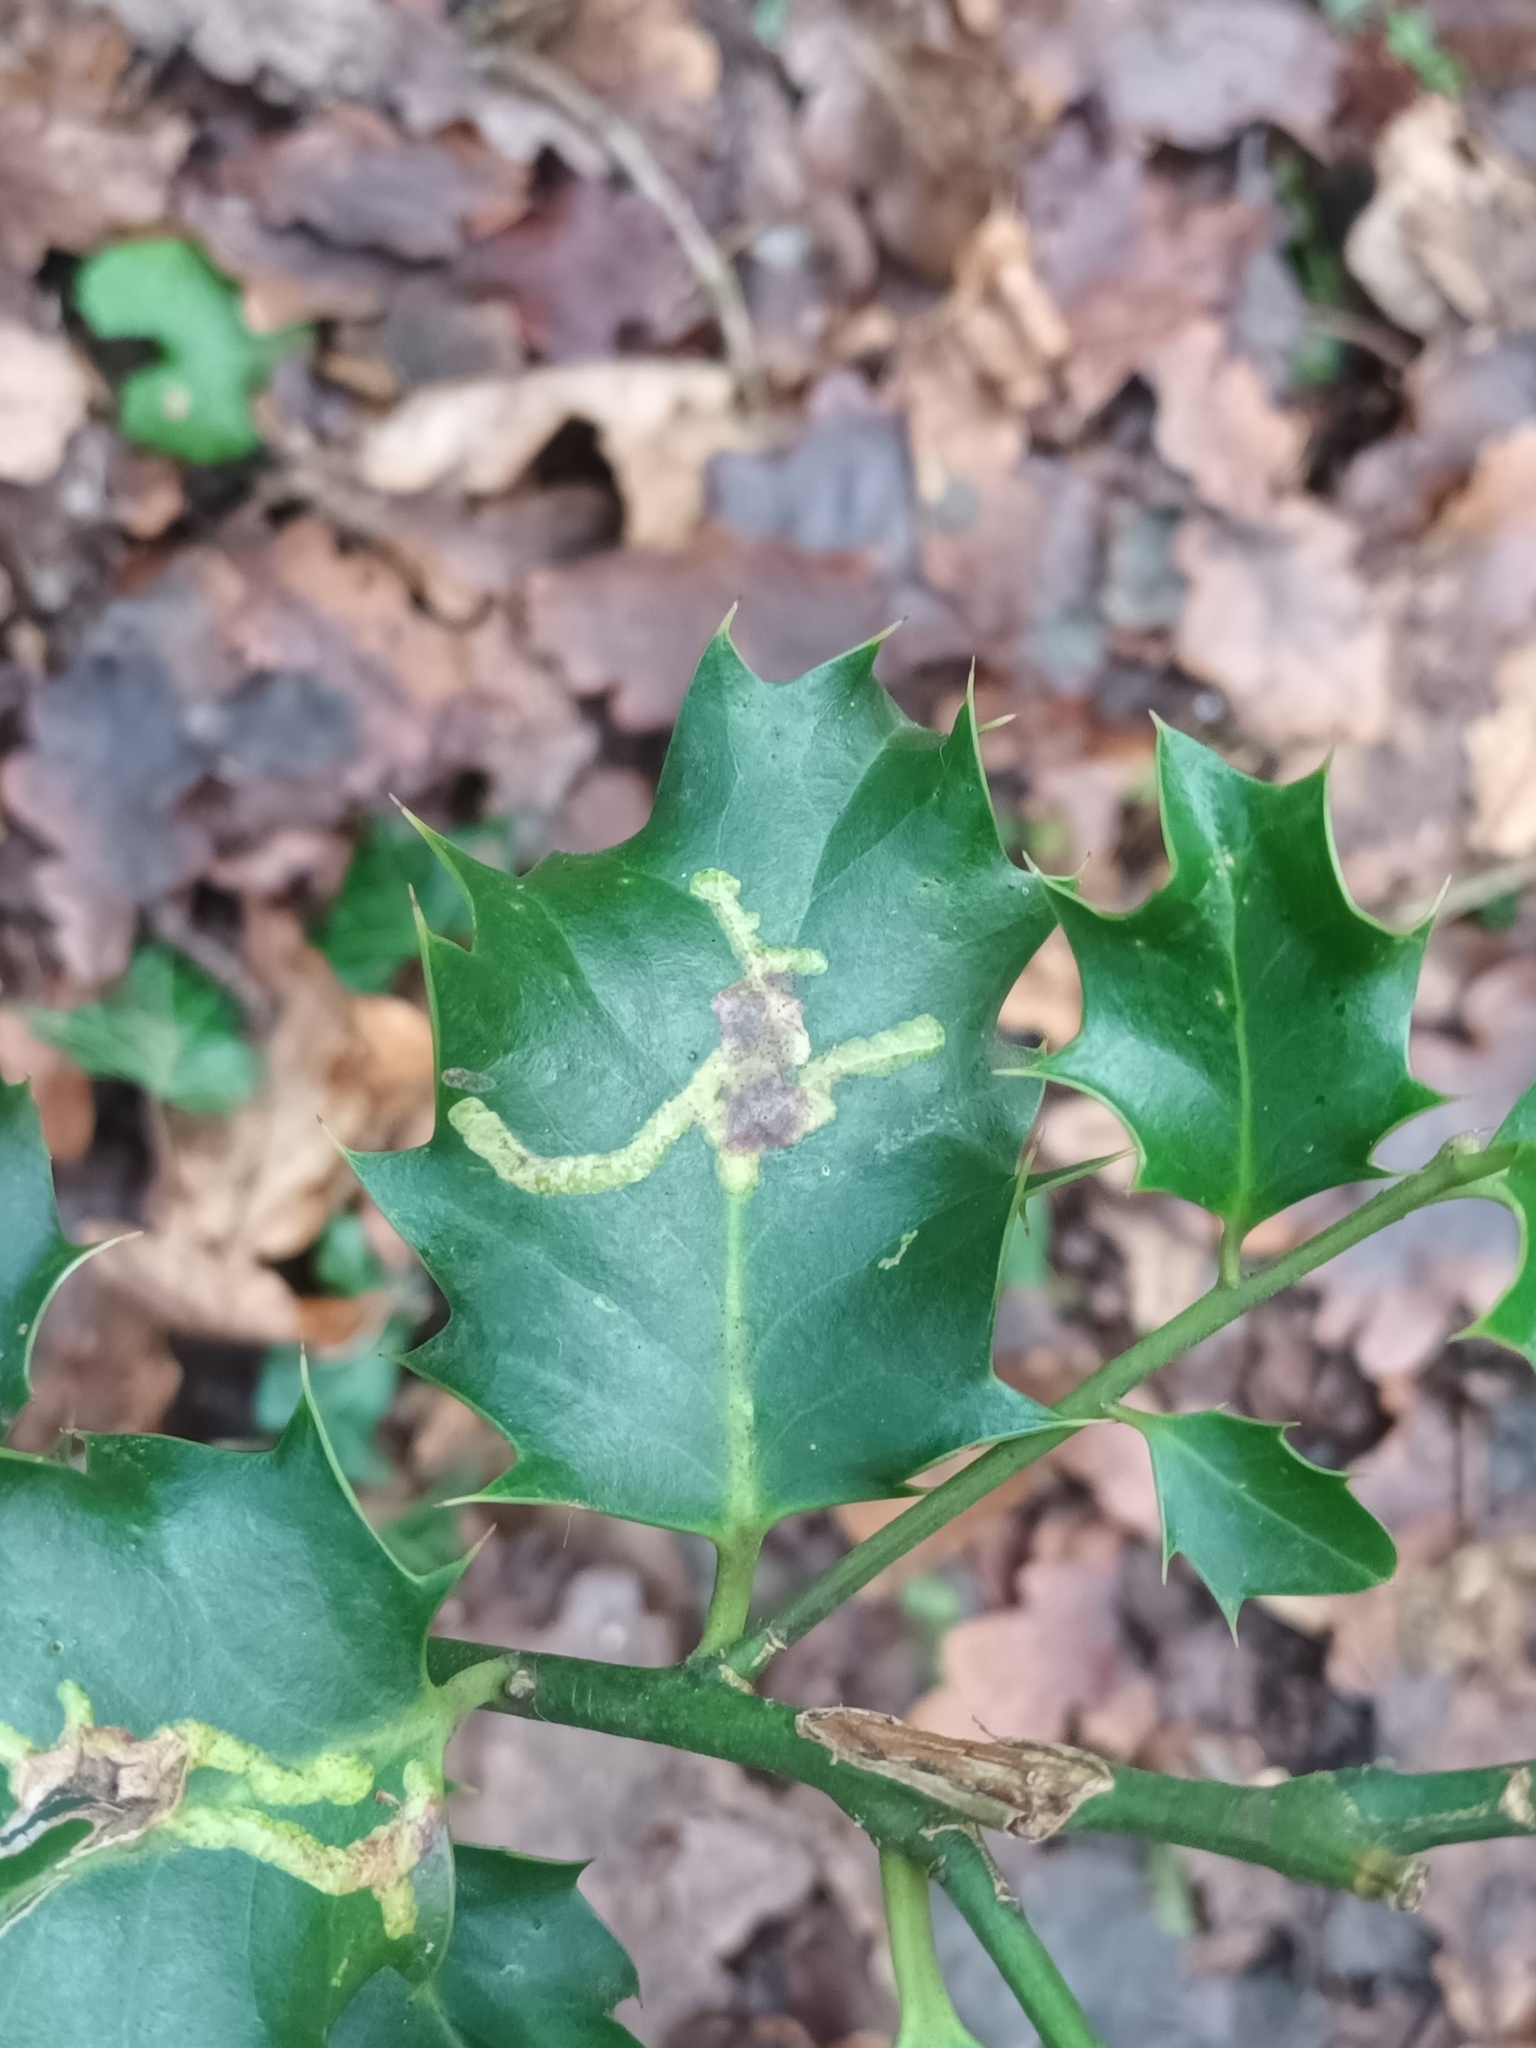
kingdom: Animalia
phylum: Arthropoda
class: Insecta
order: Diptera
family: Agromyzidae
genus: Phytomyza
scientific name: Phytomyza ilicis
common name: Holly leafminer
